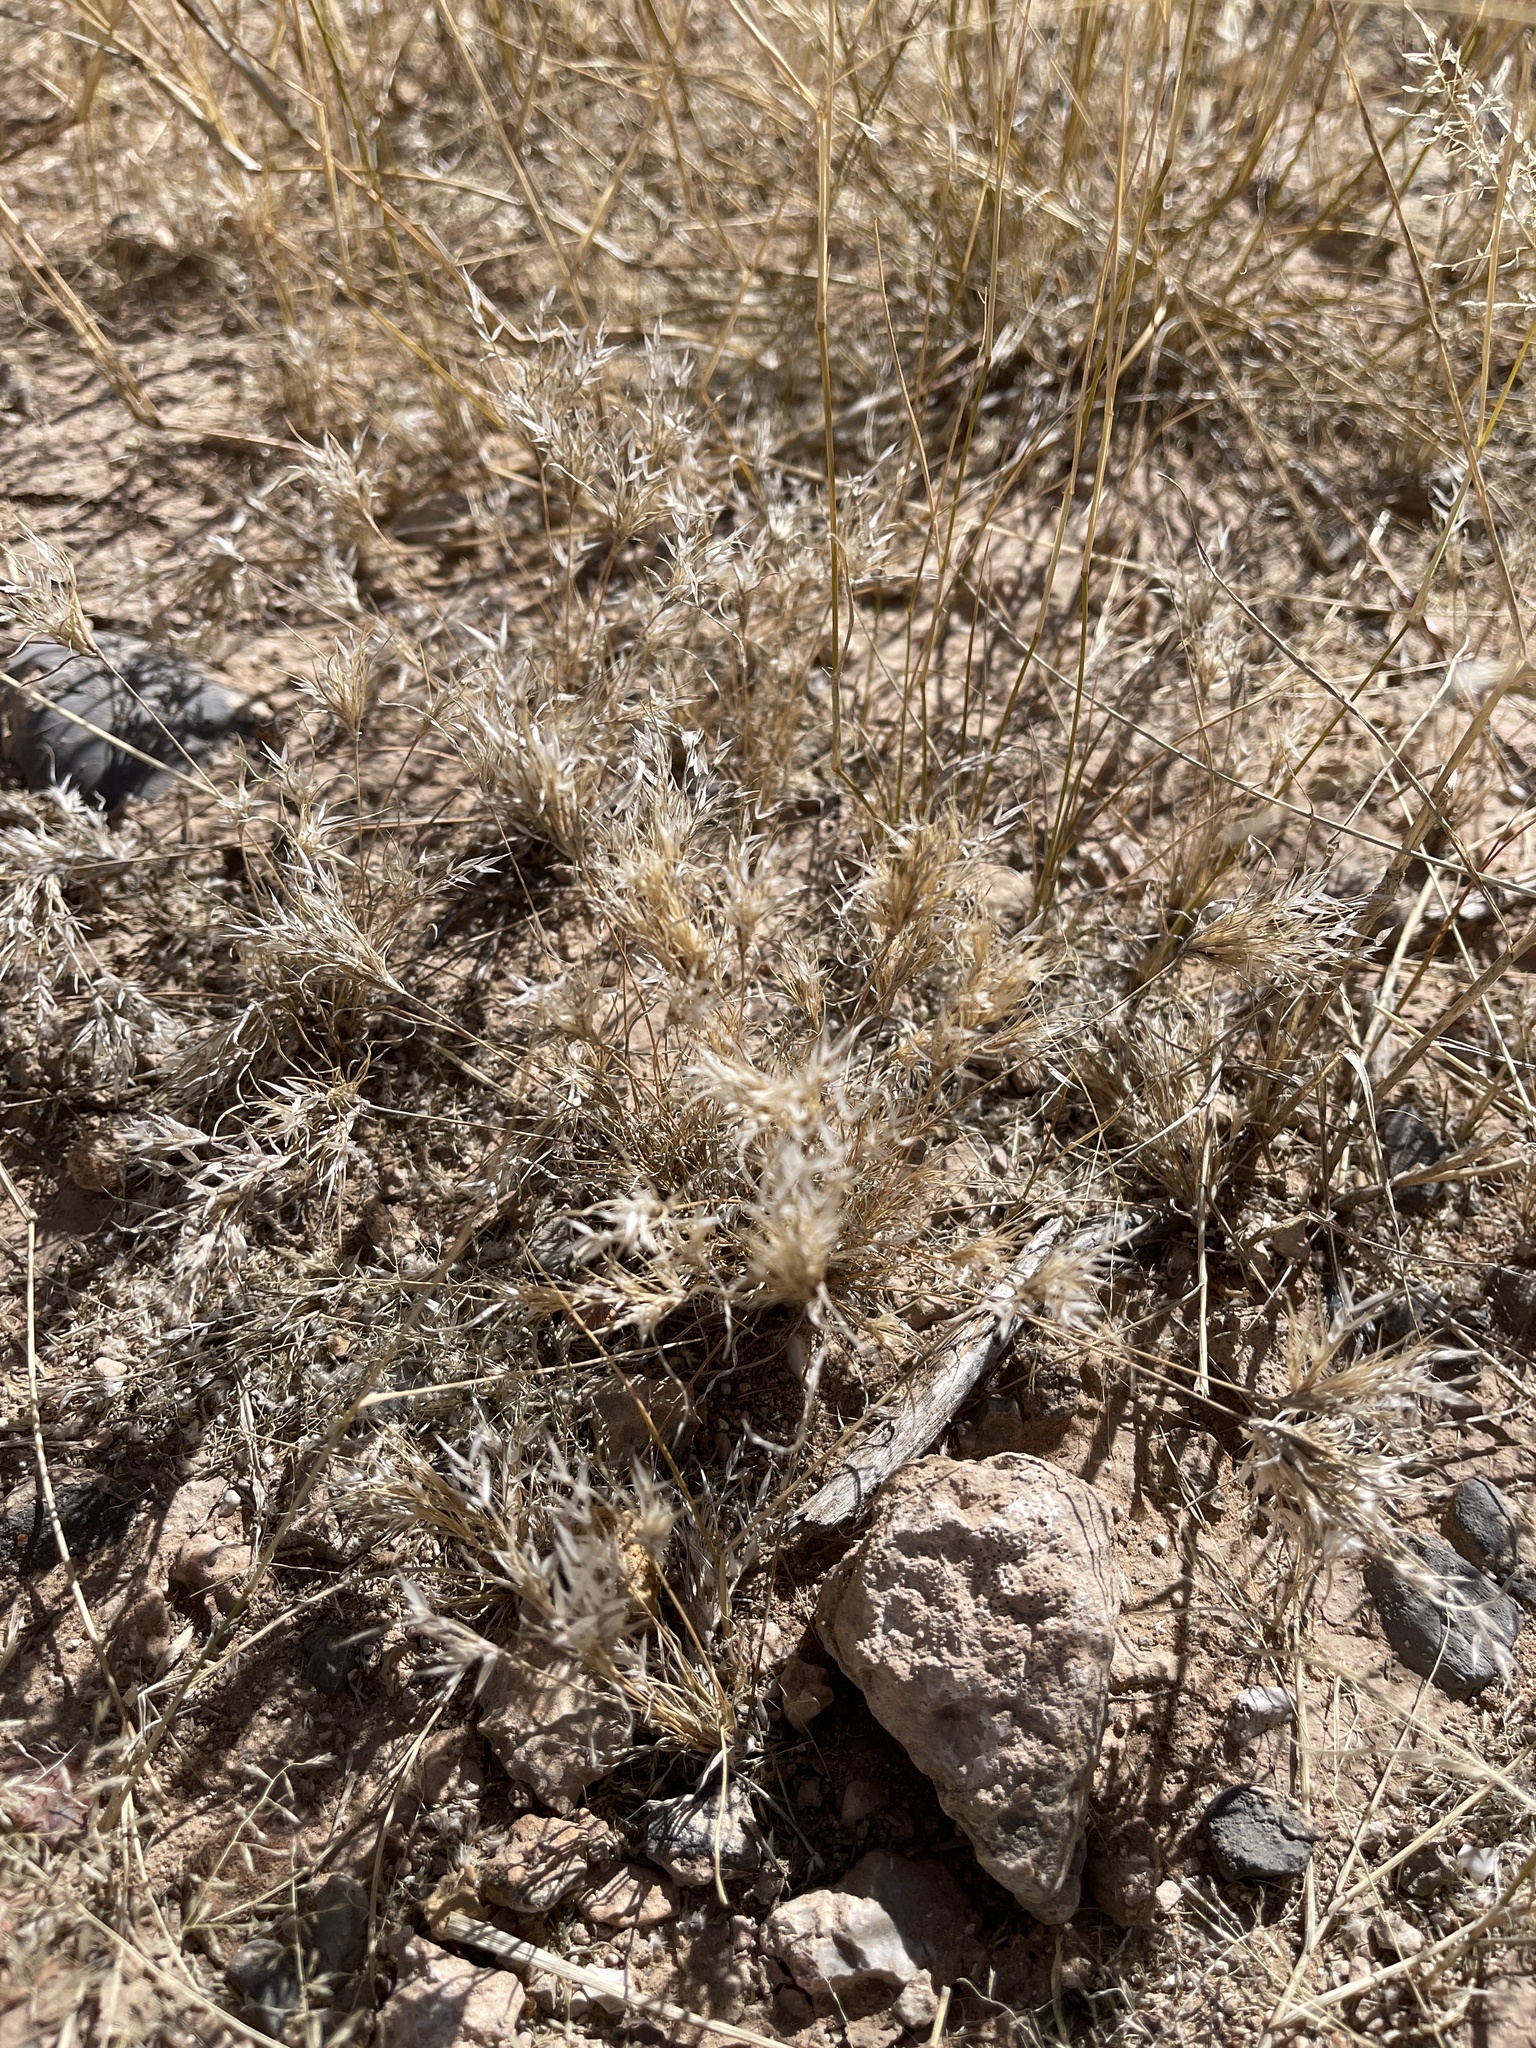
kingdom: Plantae
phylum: Tracheophyta
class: Liliopsida
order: Poales
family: Poaceae
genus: Dasyochloa
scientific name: Dasyochloa pulchella
